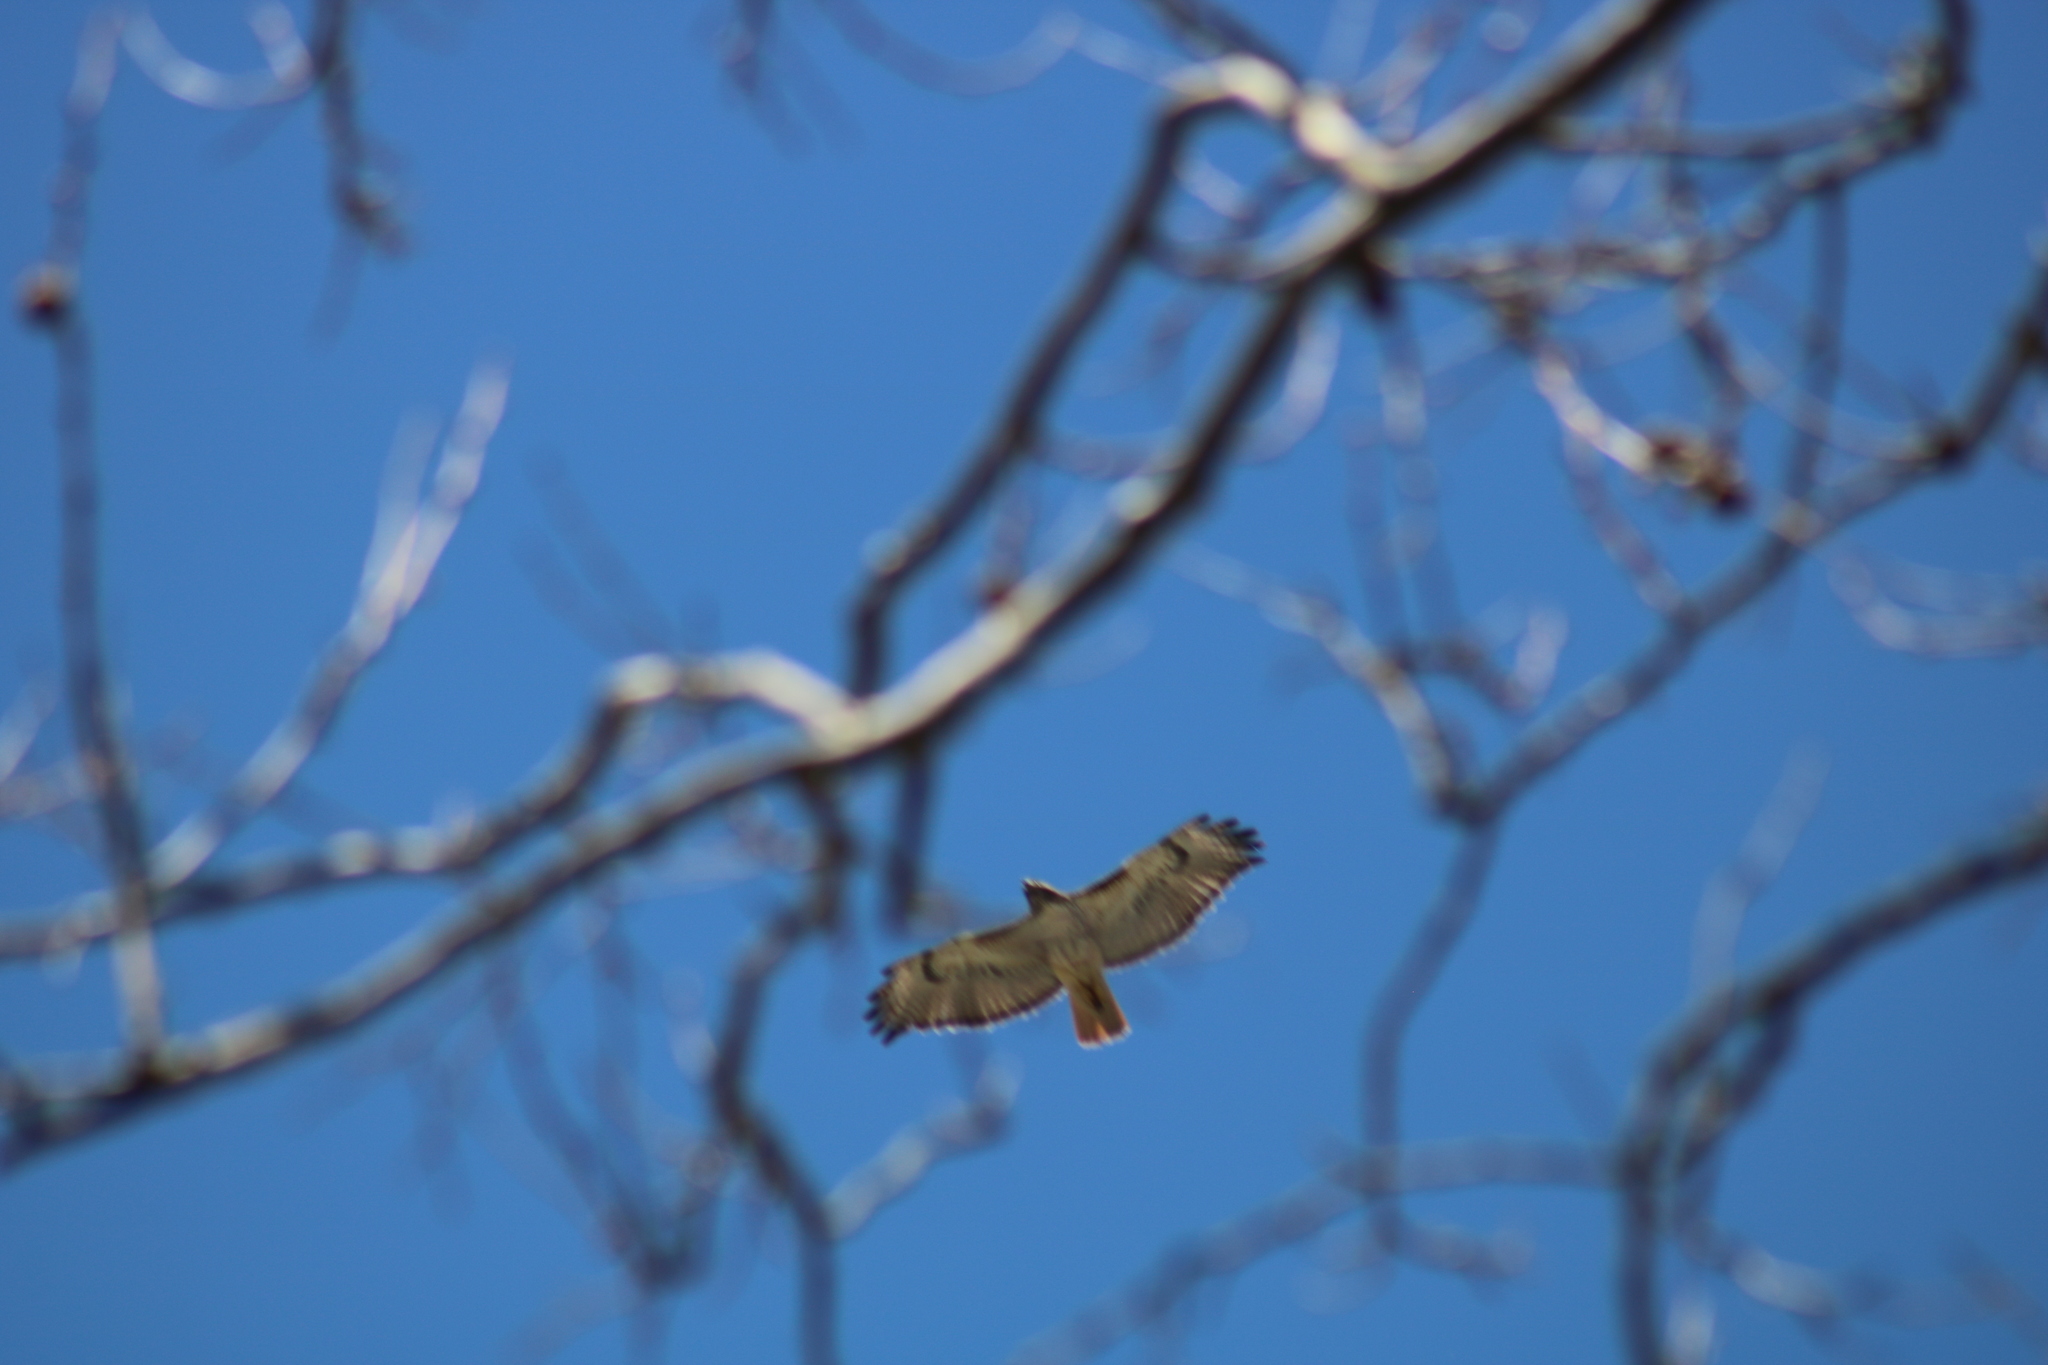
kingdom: Animalia
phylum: Chordata
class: Aves
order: Accipitriformes
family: Accipitridae
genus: Buteo
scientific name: Buteo jamaicensis
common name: Red-tailed hawk
